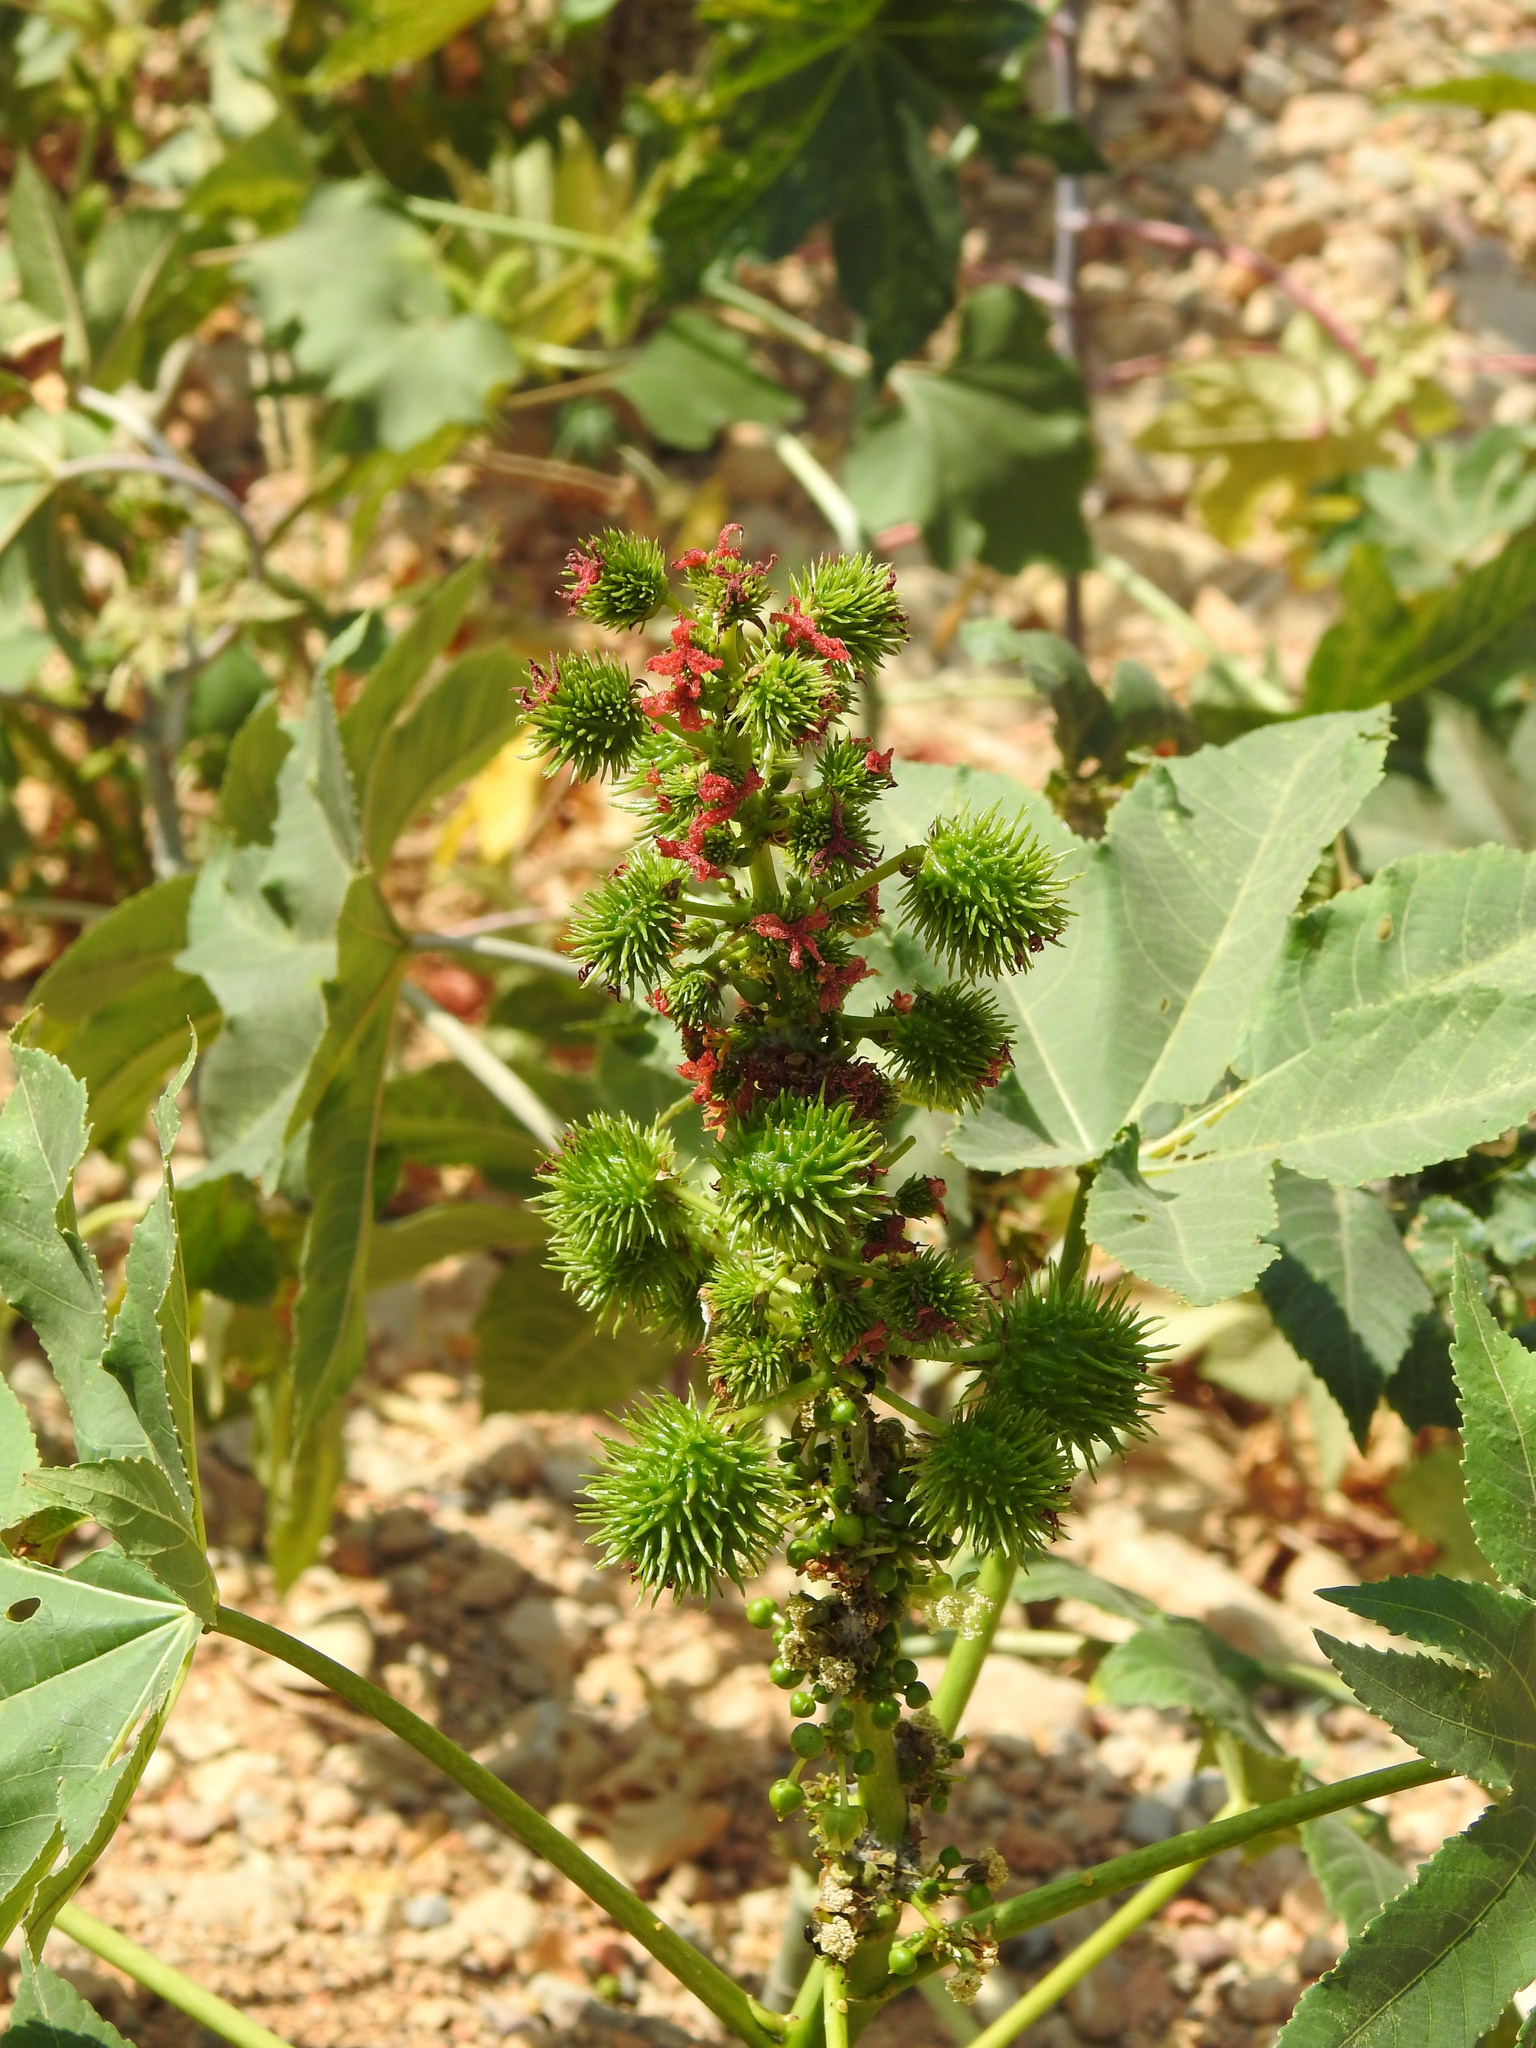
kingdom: Plantae
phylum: Tracheophyta
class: Magnoliopsida
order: Malpighiales
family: Euphorbiaceae
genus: Ricinus
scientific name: Ricinus communis
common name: Castor-oil-plant
